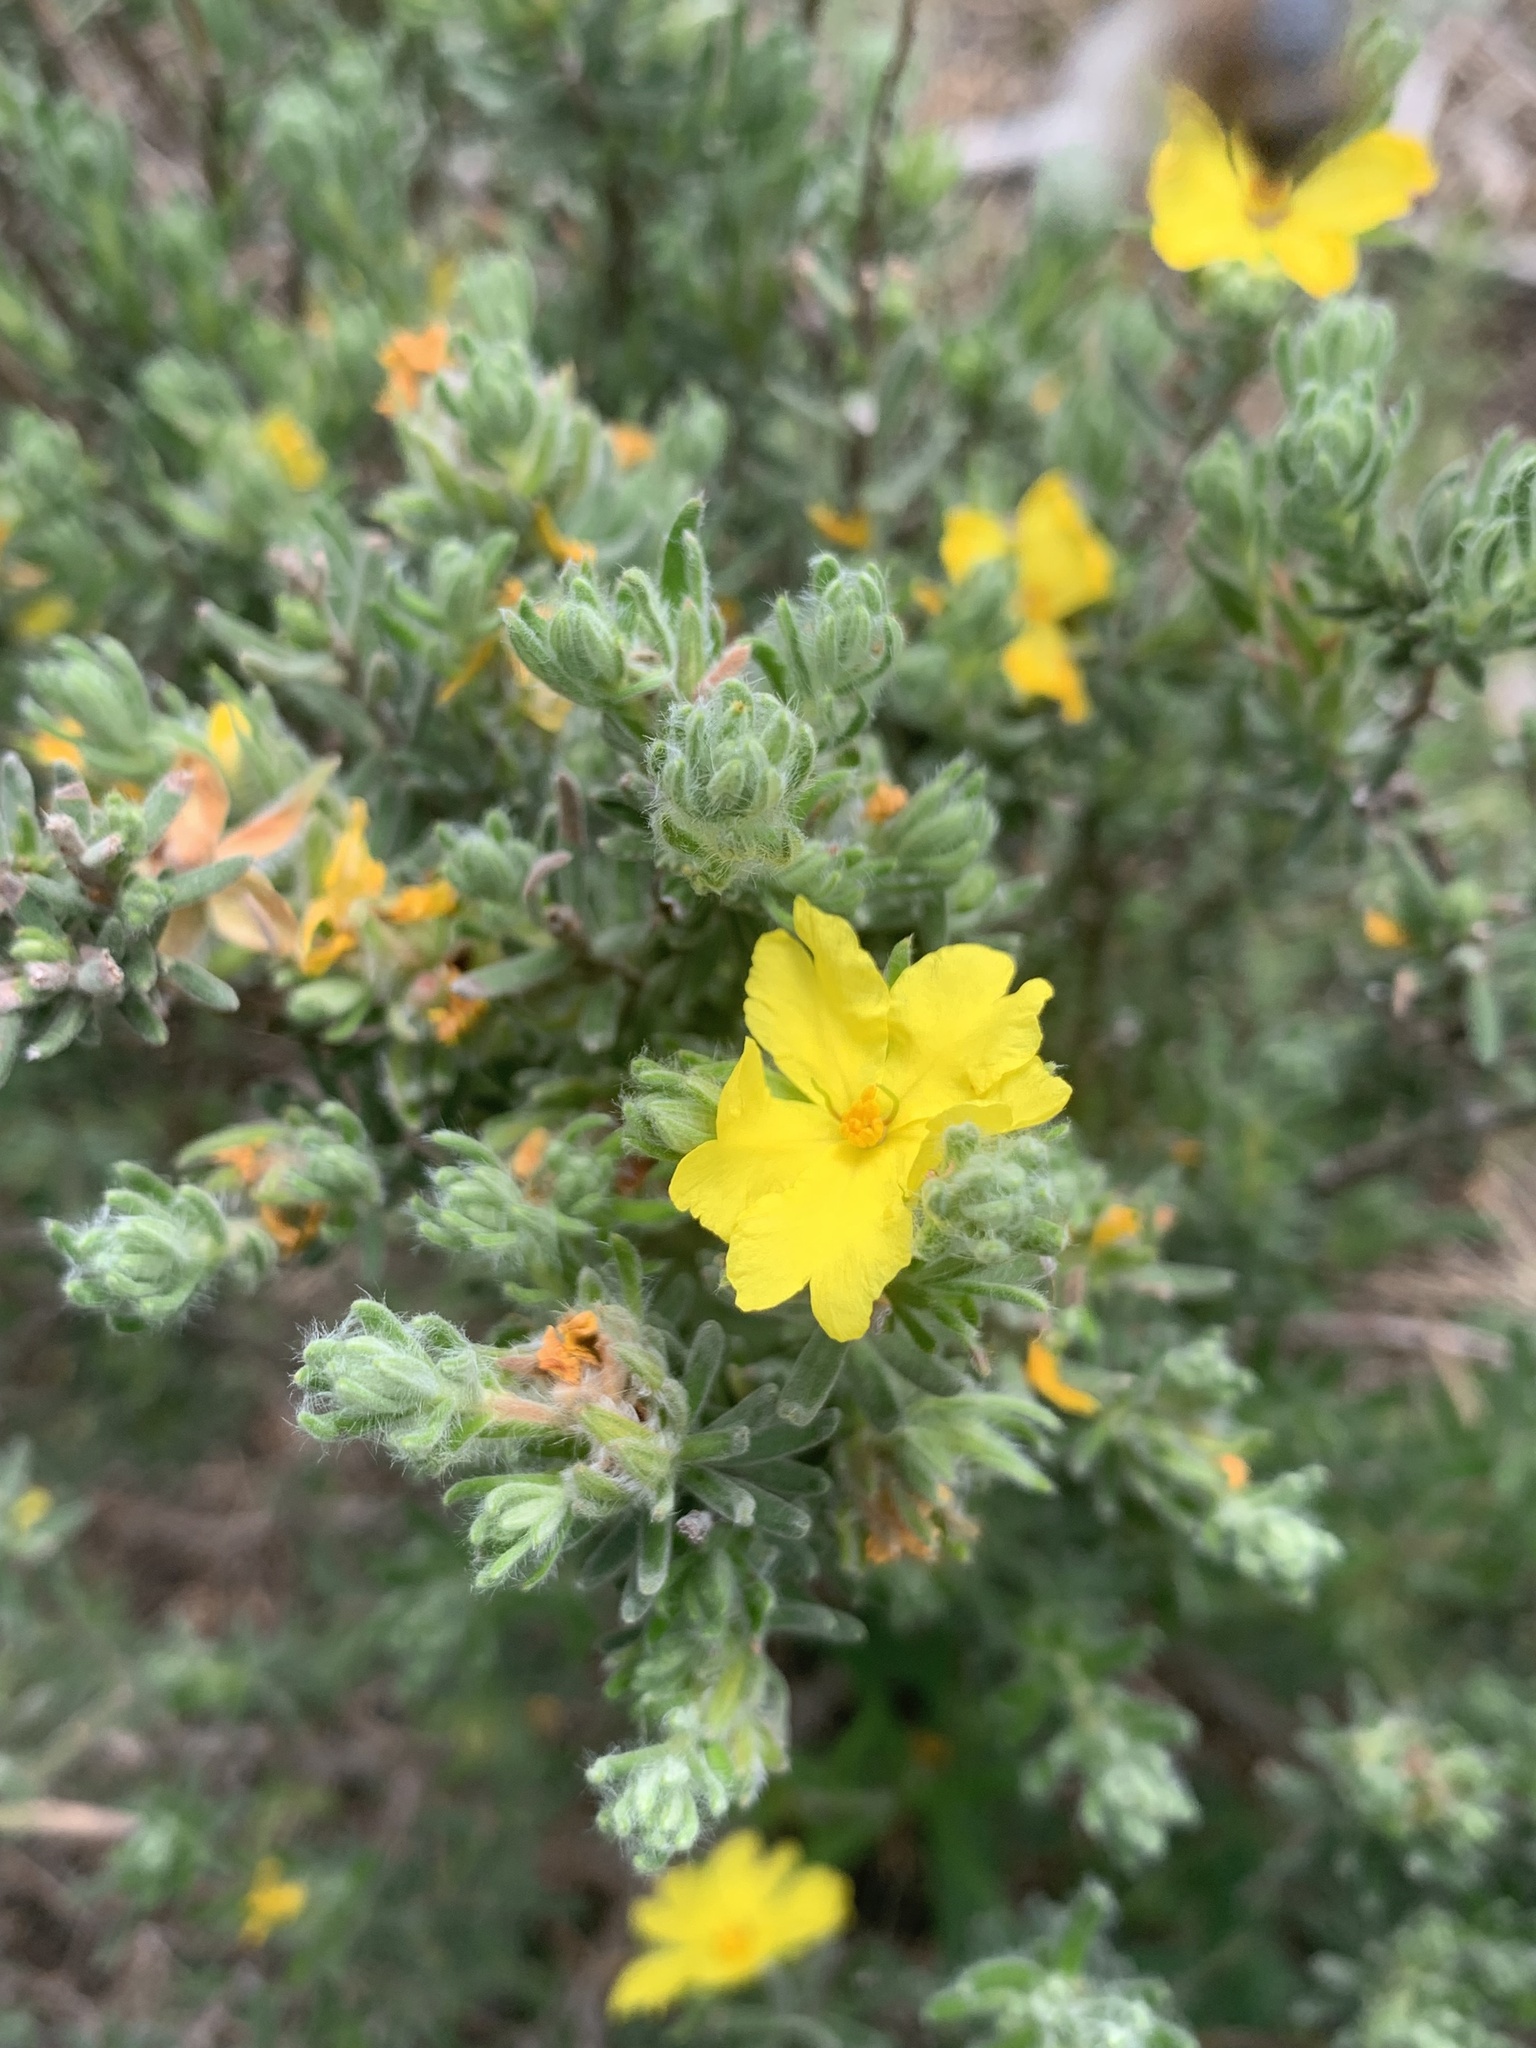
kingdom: Plantae
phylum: Tracheophyta
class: Magnoliopsida
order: Dilleniales
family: Dilleniaceae
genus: Hibbertia
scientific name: Hibbertia crinita
